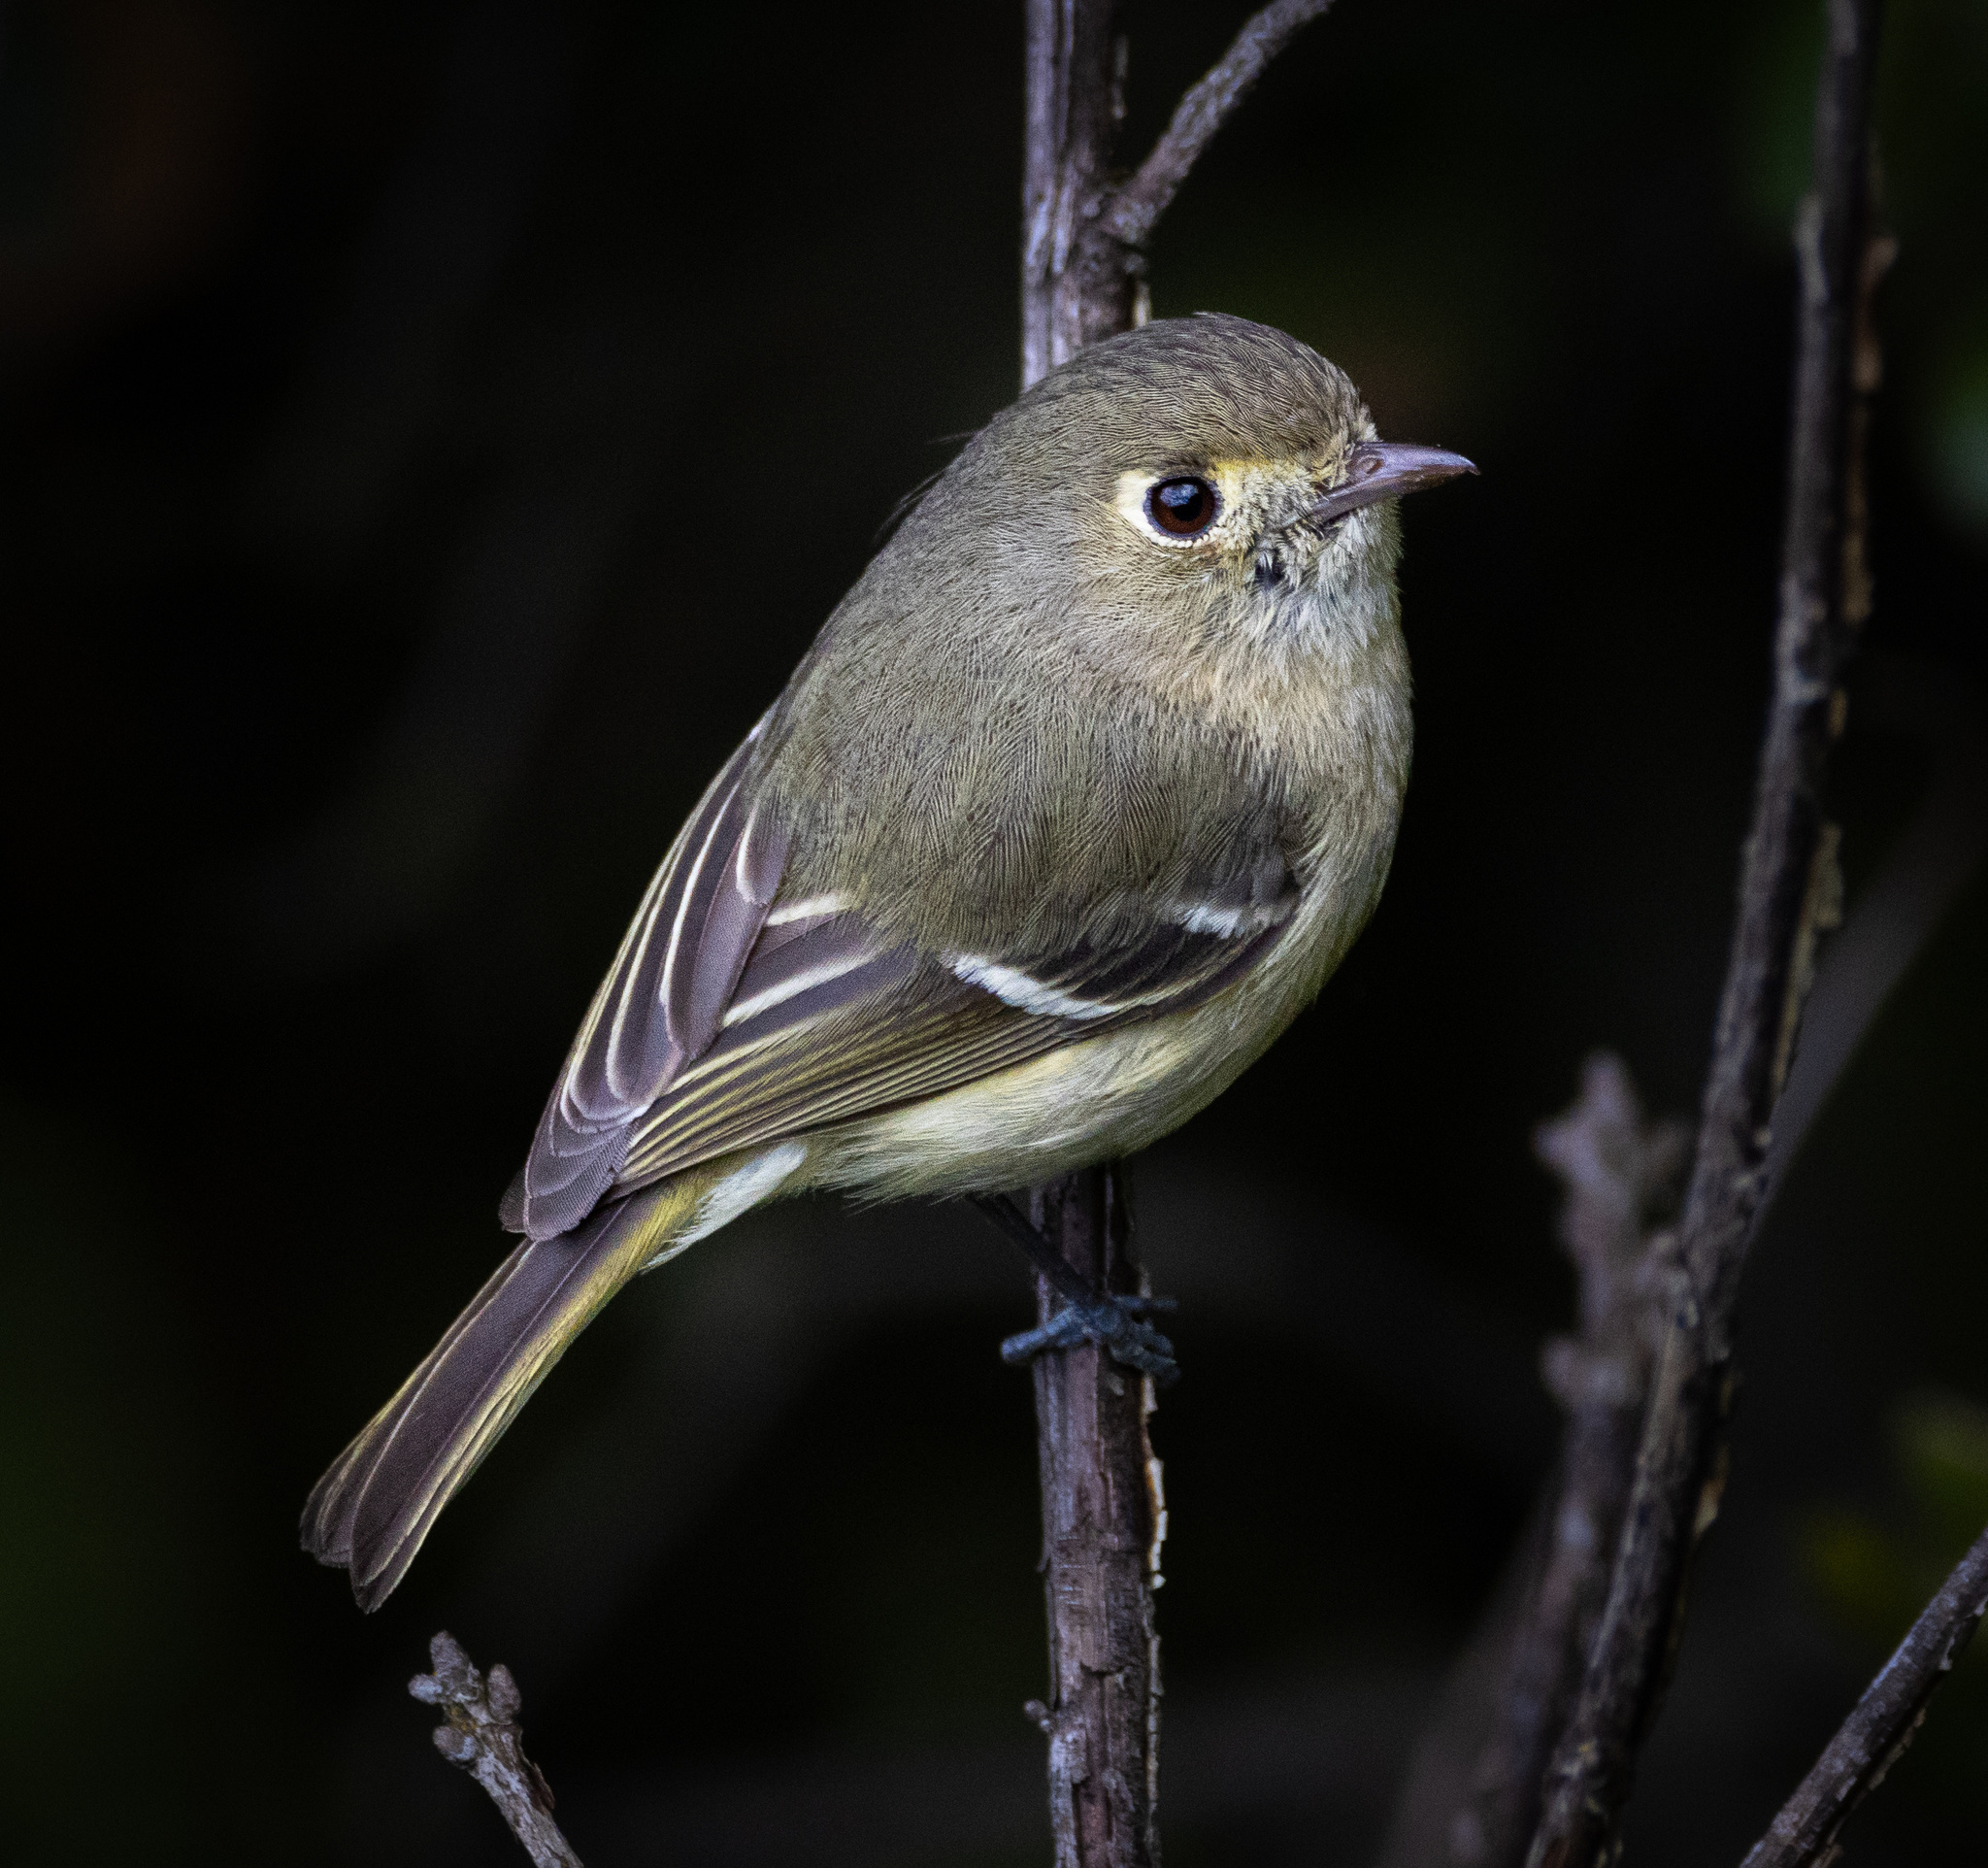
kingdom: Animalia
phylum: Chordata
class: Aves
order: Passeriformes
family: Vireonidae
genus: Vireo
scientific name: Vireo huttoni
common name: Hutton's vireo
